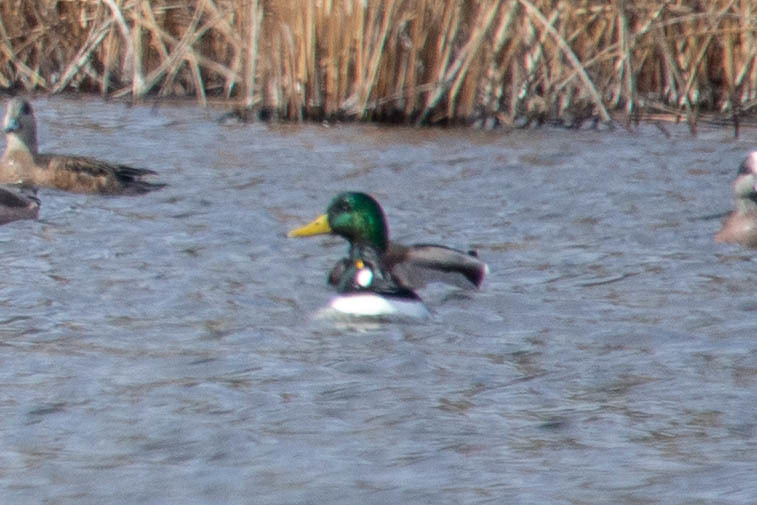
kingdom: Animalia
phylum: Chordata
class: Aves
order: Anseriformes
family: Anatidae
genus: Bucephala
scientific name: Bucephala clangula
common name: Common goldeneye
